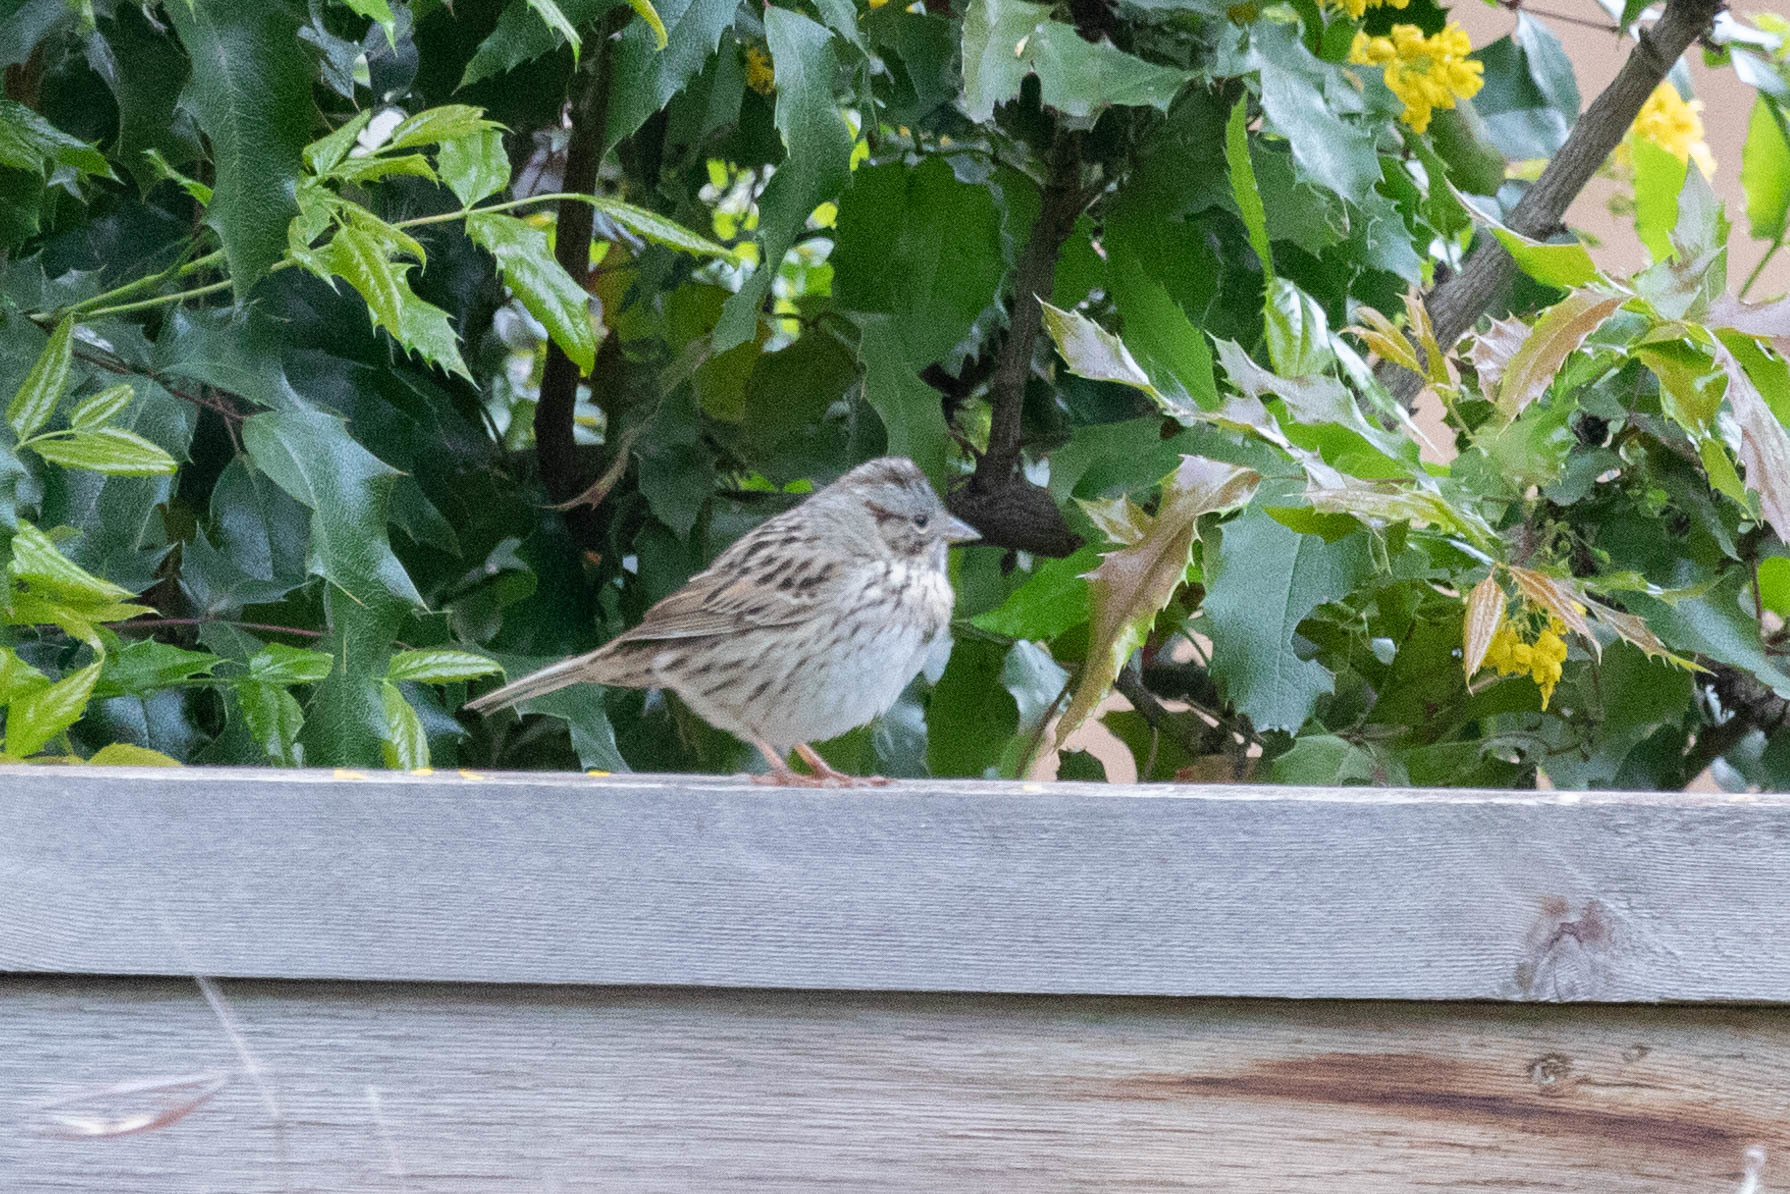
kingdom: Animalia
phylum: Chordata
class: Aves
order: Passeriformes
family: Passerellidae
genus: Melospiza
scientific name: Melospiza lincolnii
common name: Lincoln's sparrow
